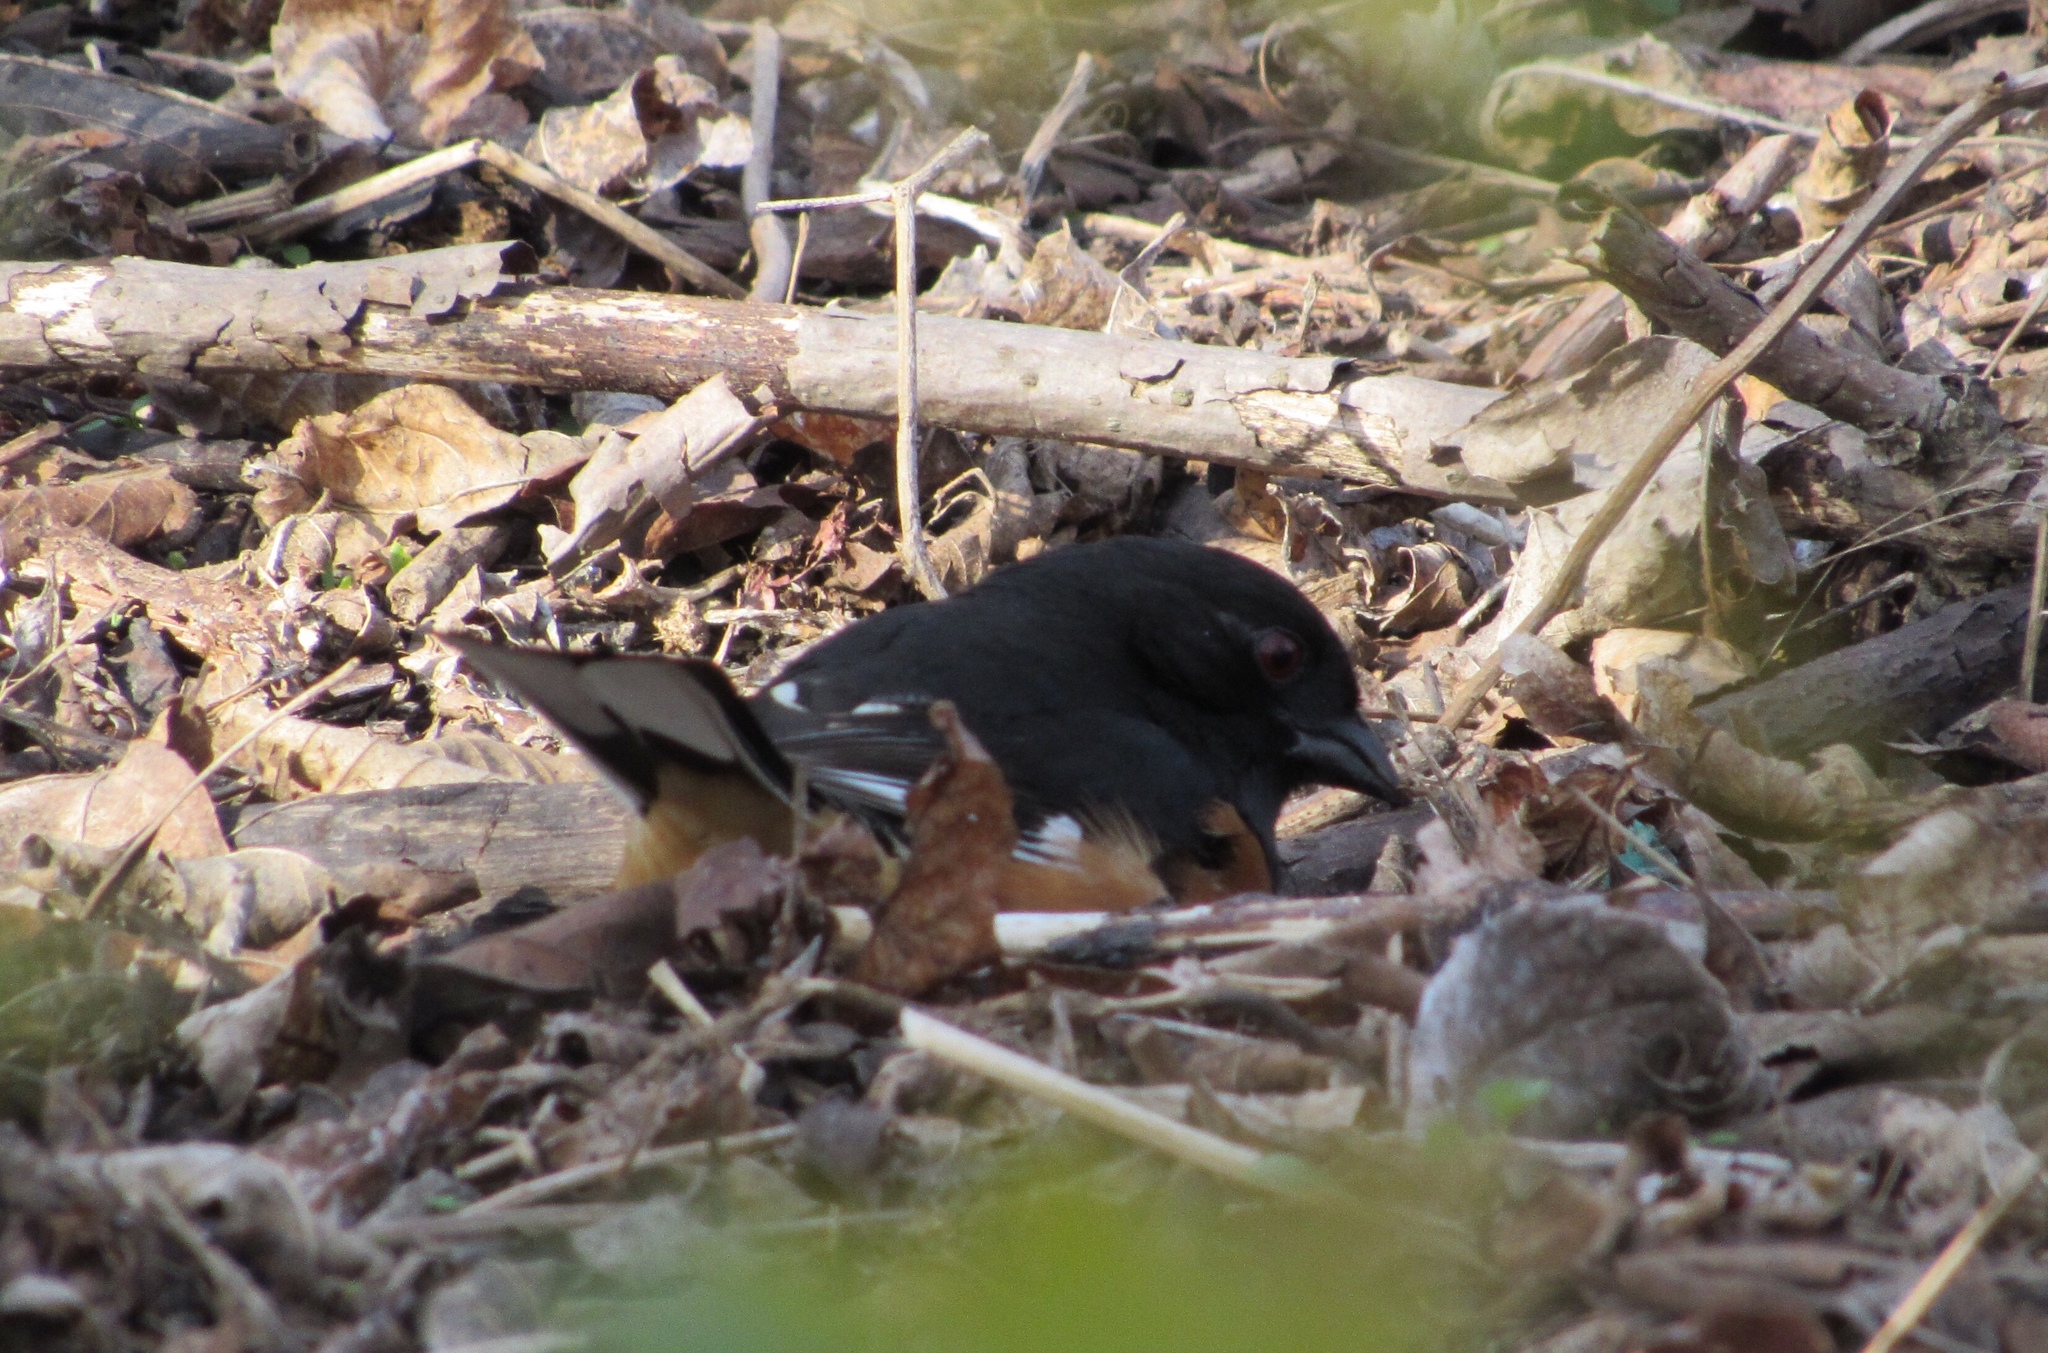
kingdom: Animalia
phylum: Chordata
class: Aves
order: Passeriformes
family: Passerellidae
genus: Pipilo
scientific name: Pipilo erythrophthalmus
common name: Eastern towhee
